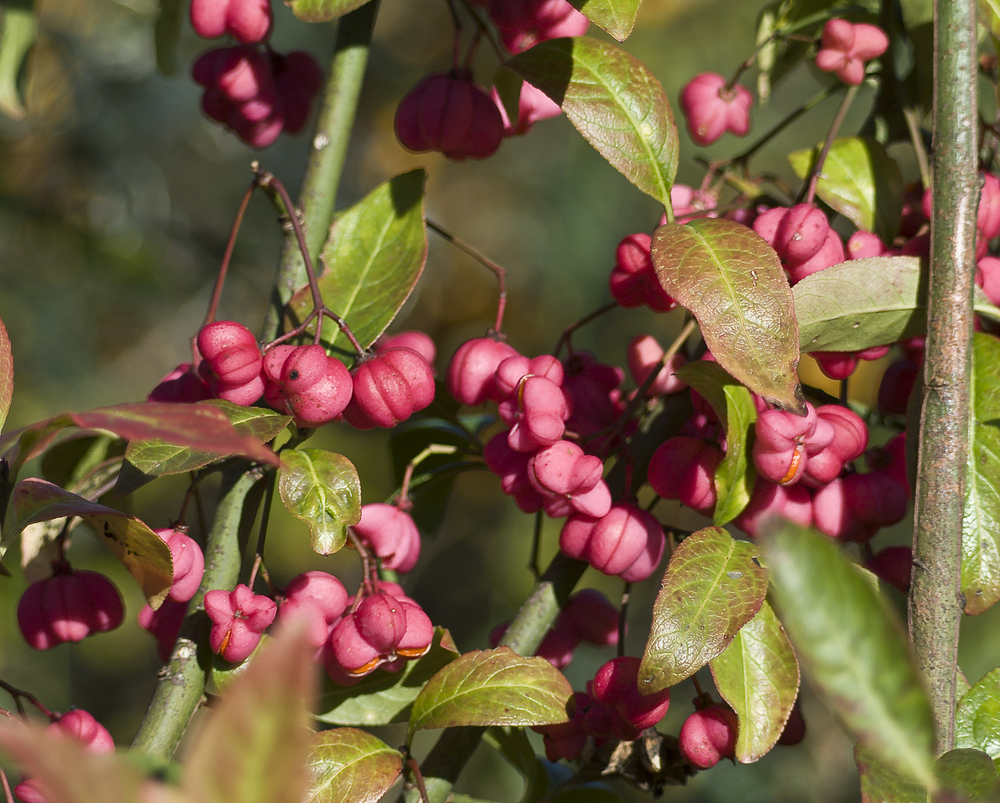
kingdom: Plantae
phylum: Tracheophyta
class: Magnoliopsida
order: Celastrales
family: Celastraceae
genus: Euonymus
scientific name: Euonymus europaeus
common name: Spindle
